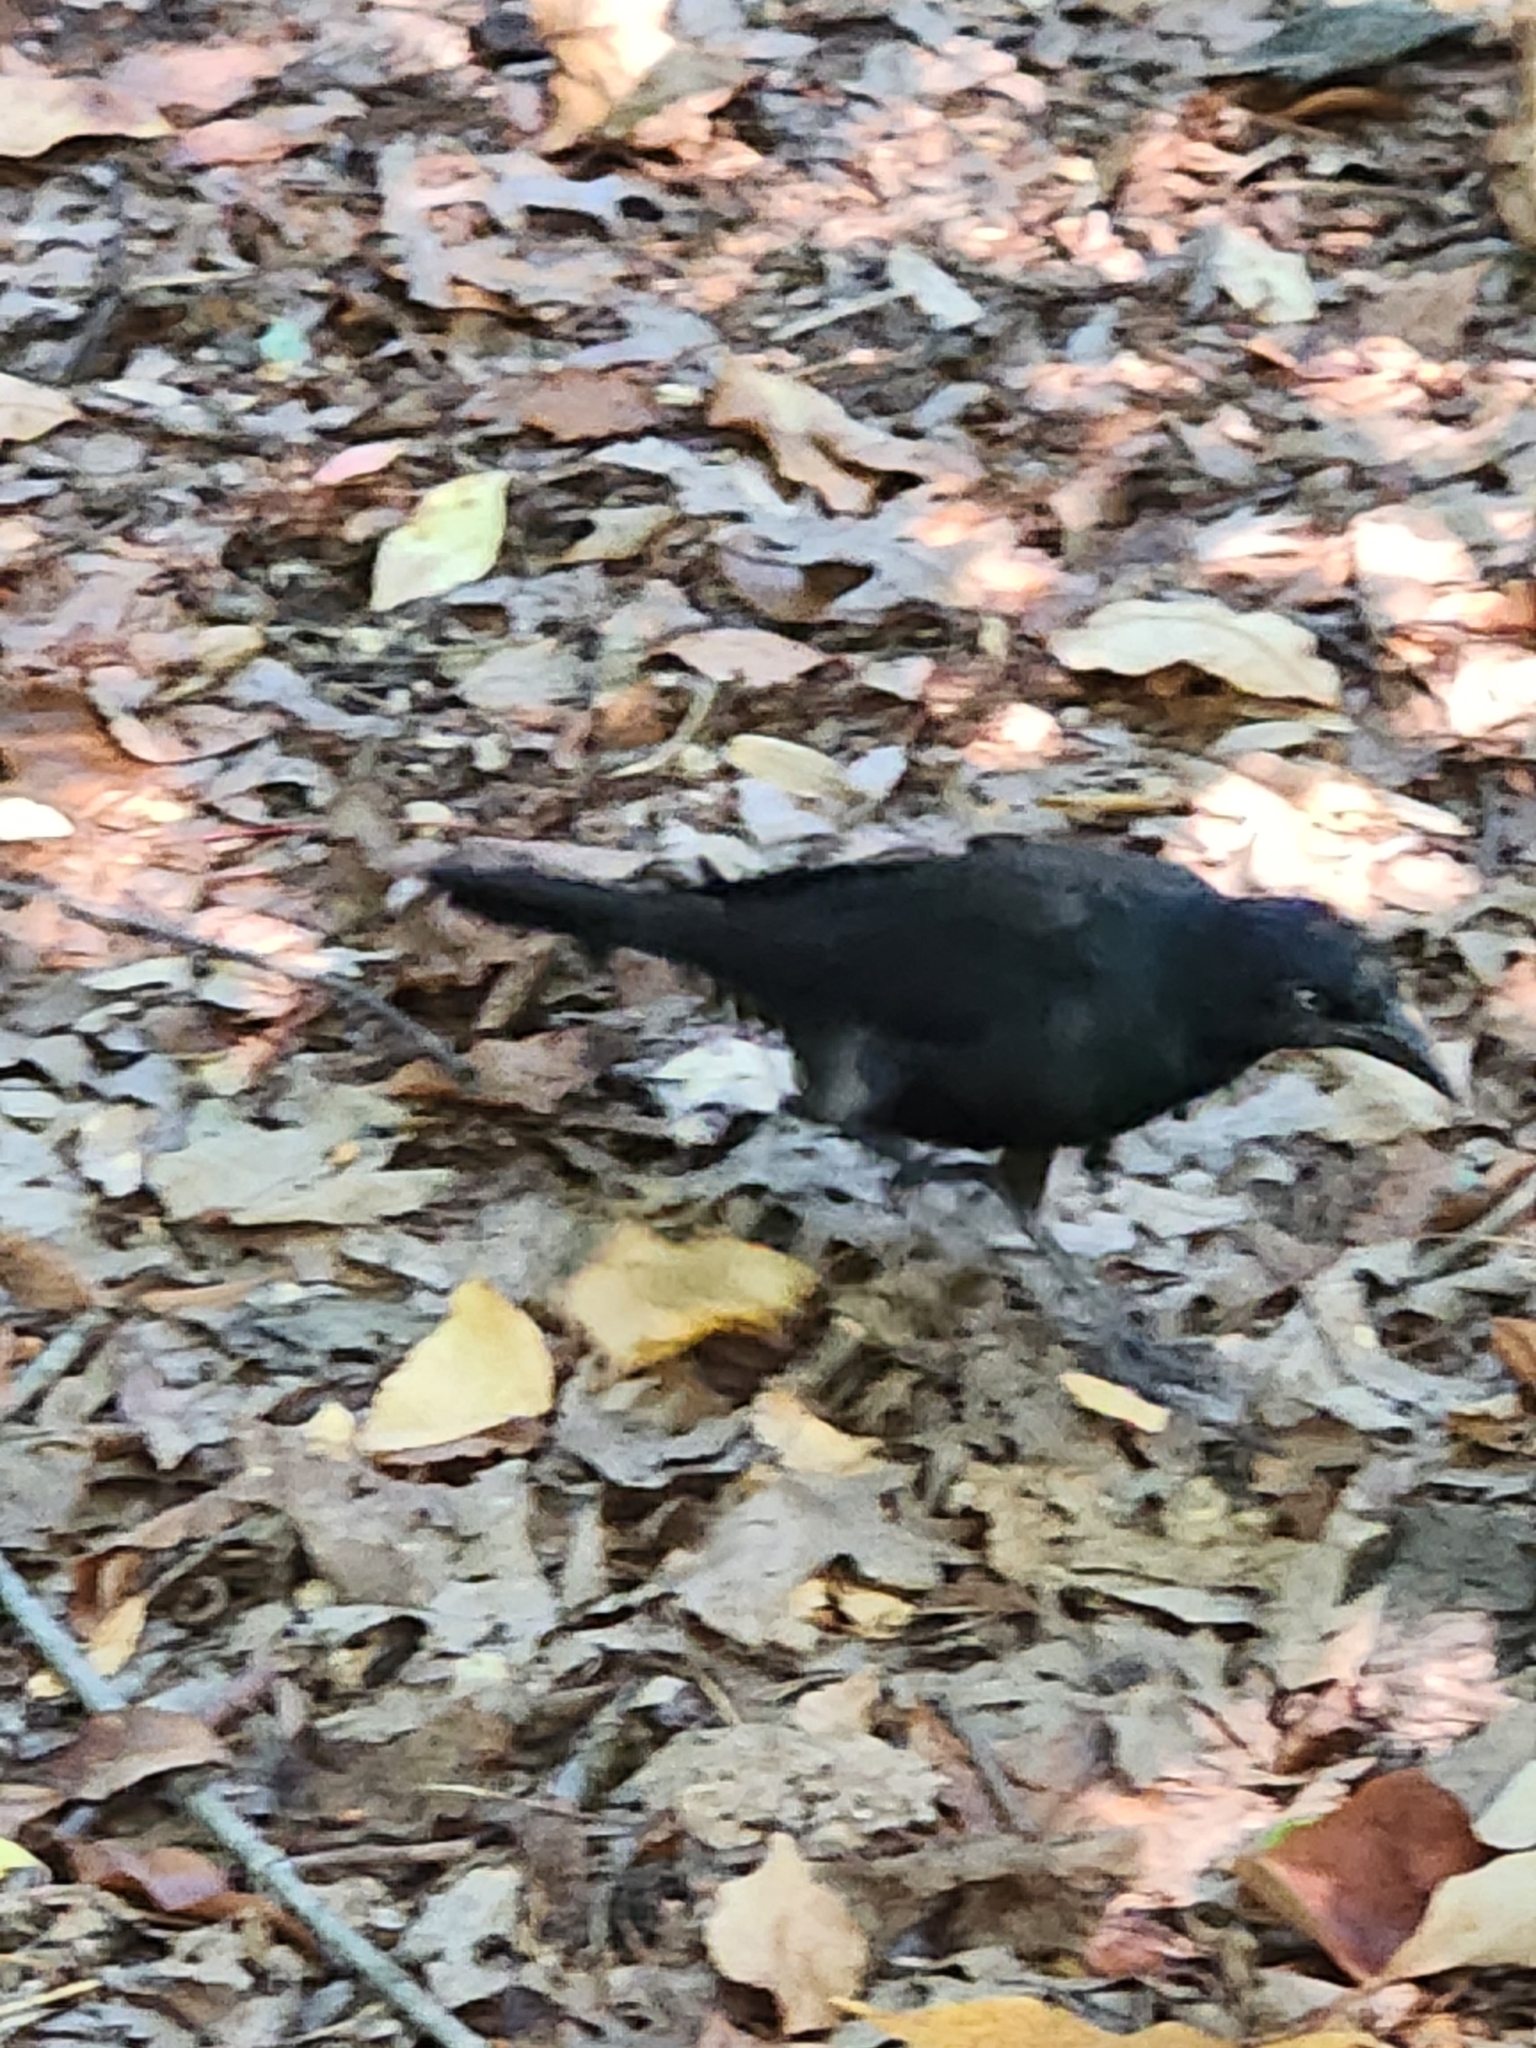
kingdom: Animalia
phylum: Chordata
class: Aves
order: Passeriformes
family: Icteridae
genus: Quiscalus
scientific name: Quiscalus quiscula
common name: Common grackle
